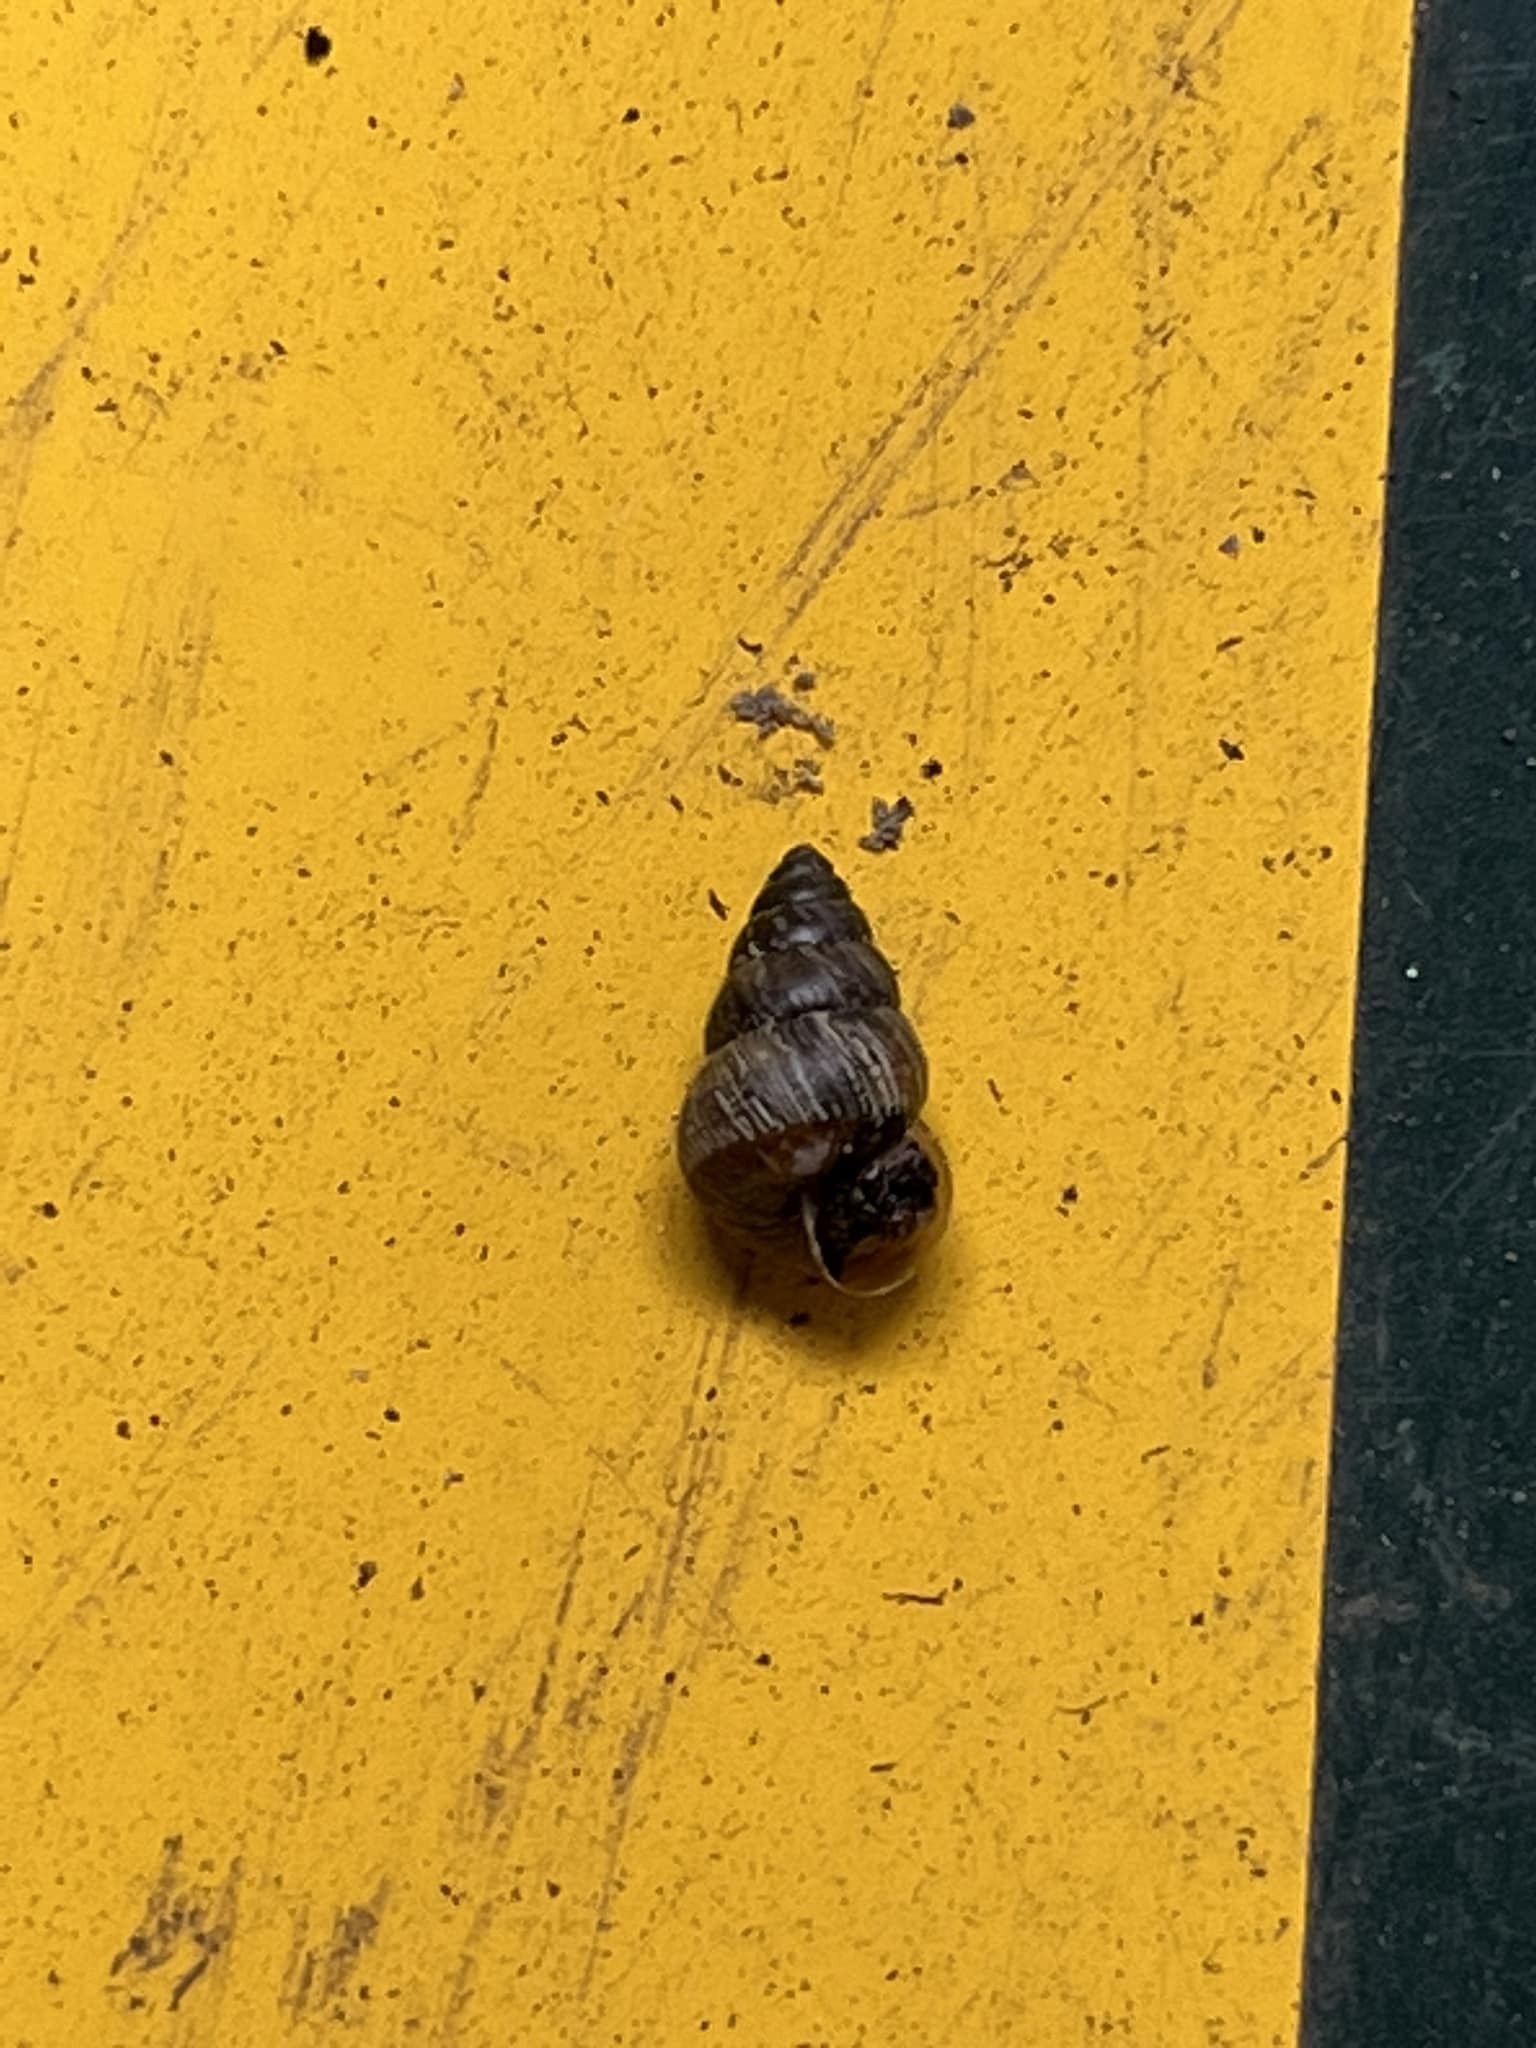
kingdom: Animalia
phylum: Mollusca
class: Gastropoda
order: Stylommatophora
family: Geomitridae
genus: Cochlicella
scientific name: Cochlicella barbara
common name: Potbellied helicellid
